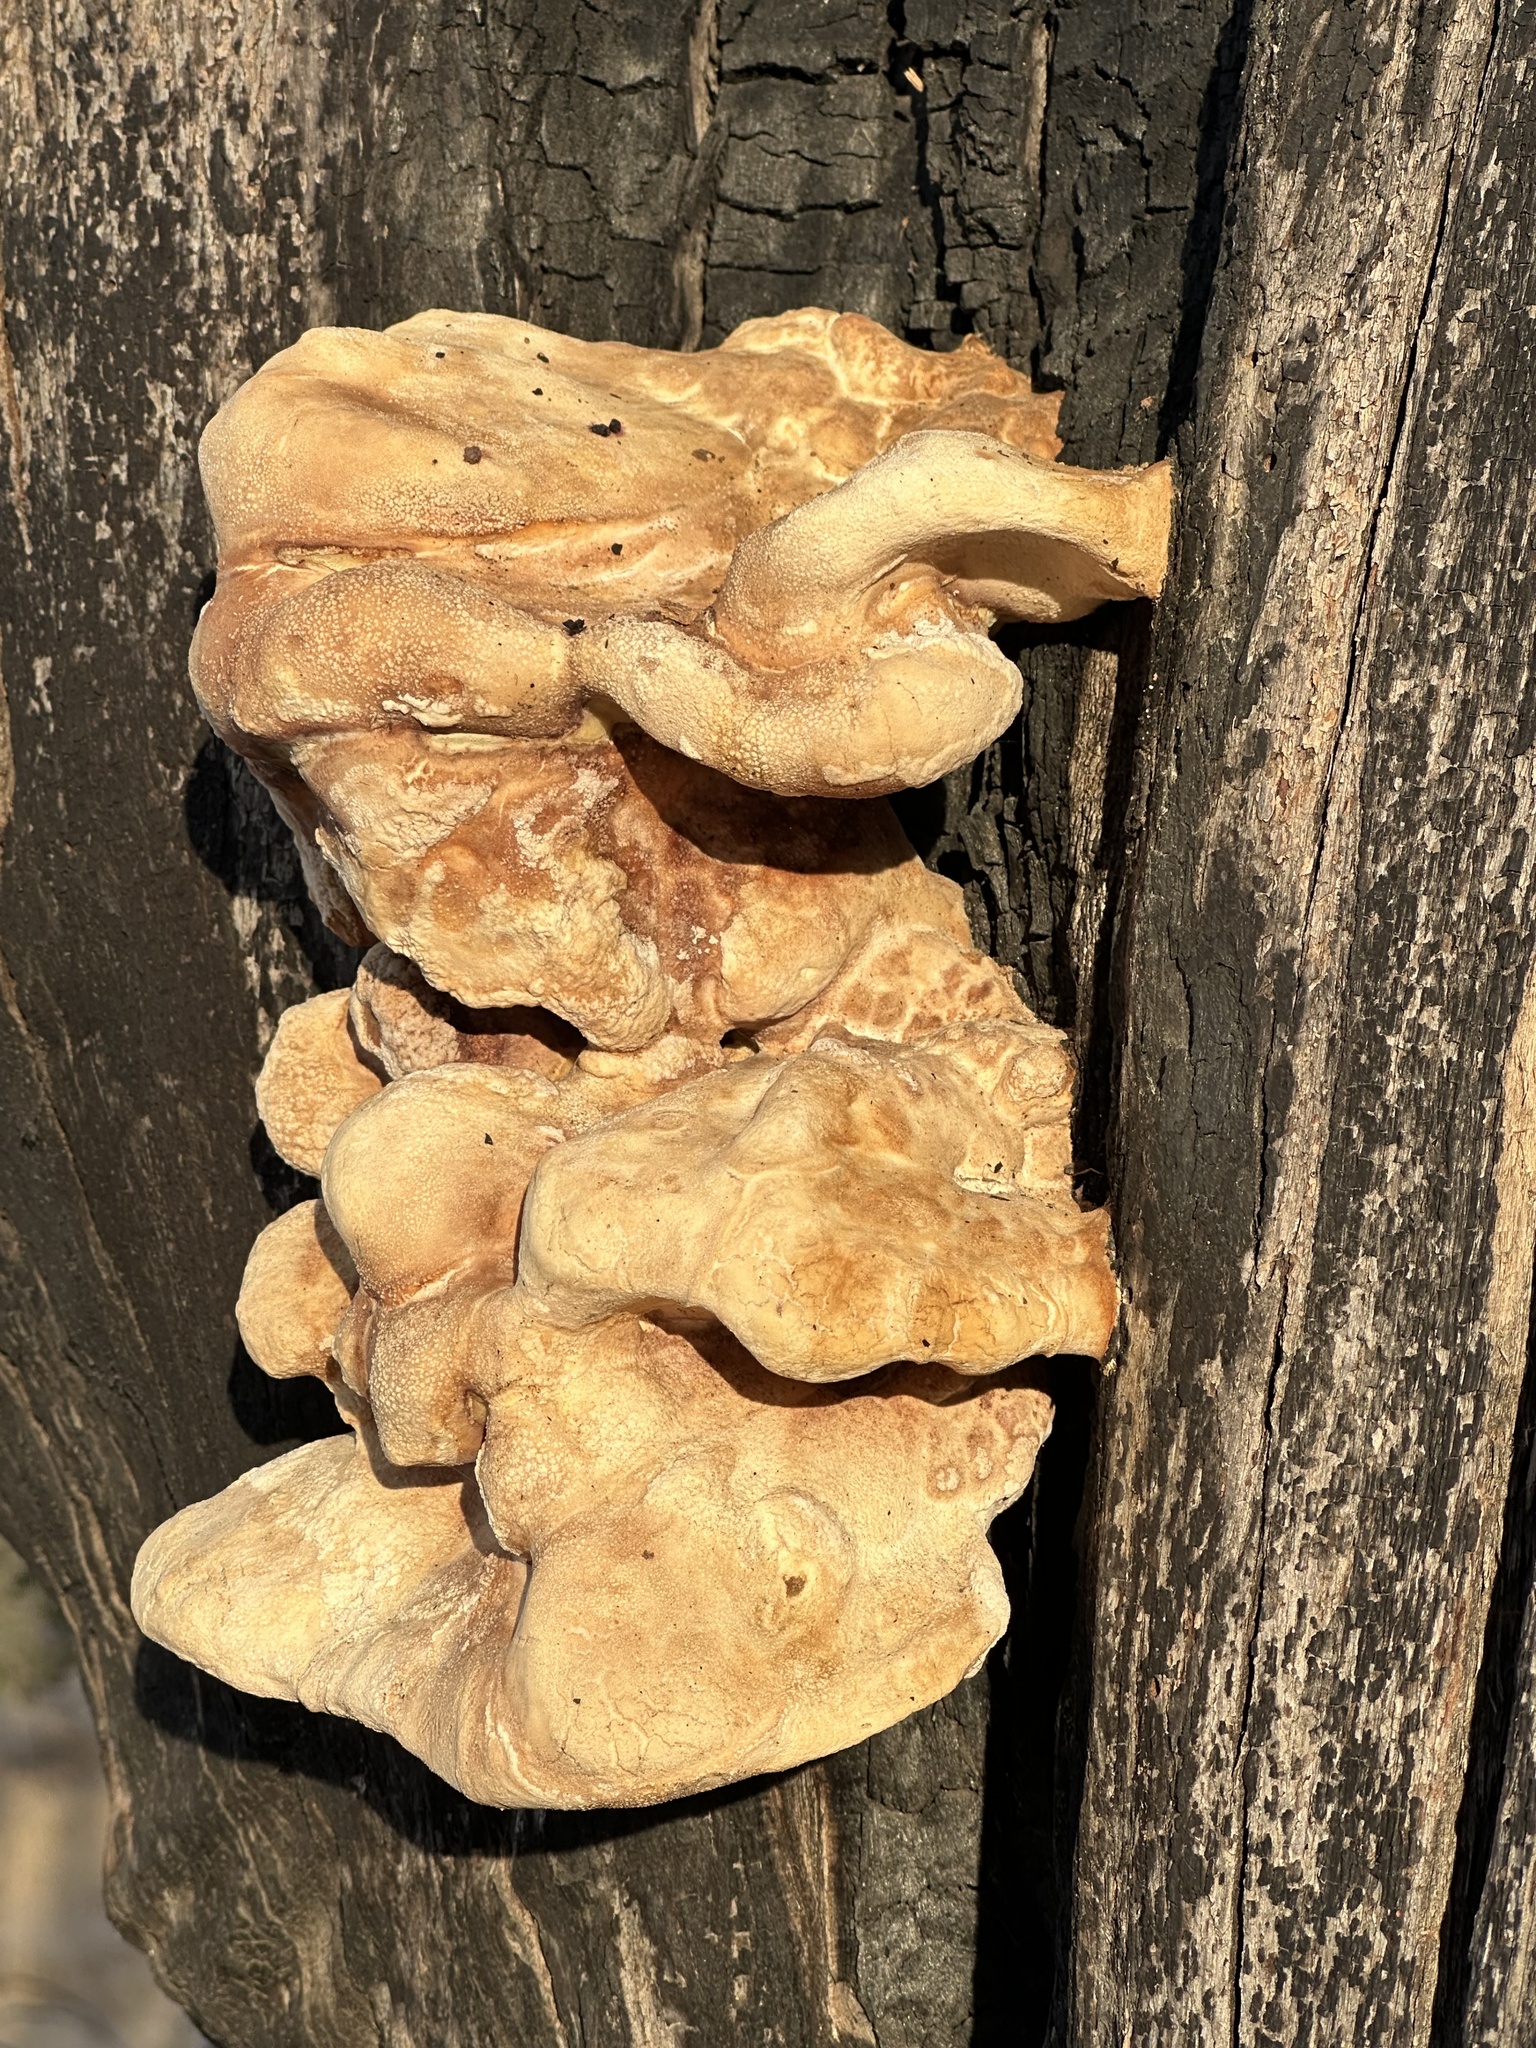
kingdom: Fungi
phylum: Basidiomycota
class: Agaricomycetes
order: Polyporales
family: Laetiporaceae
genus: Laetiporus
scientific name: Laetiporus gilbertsonii
